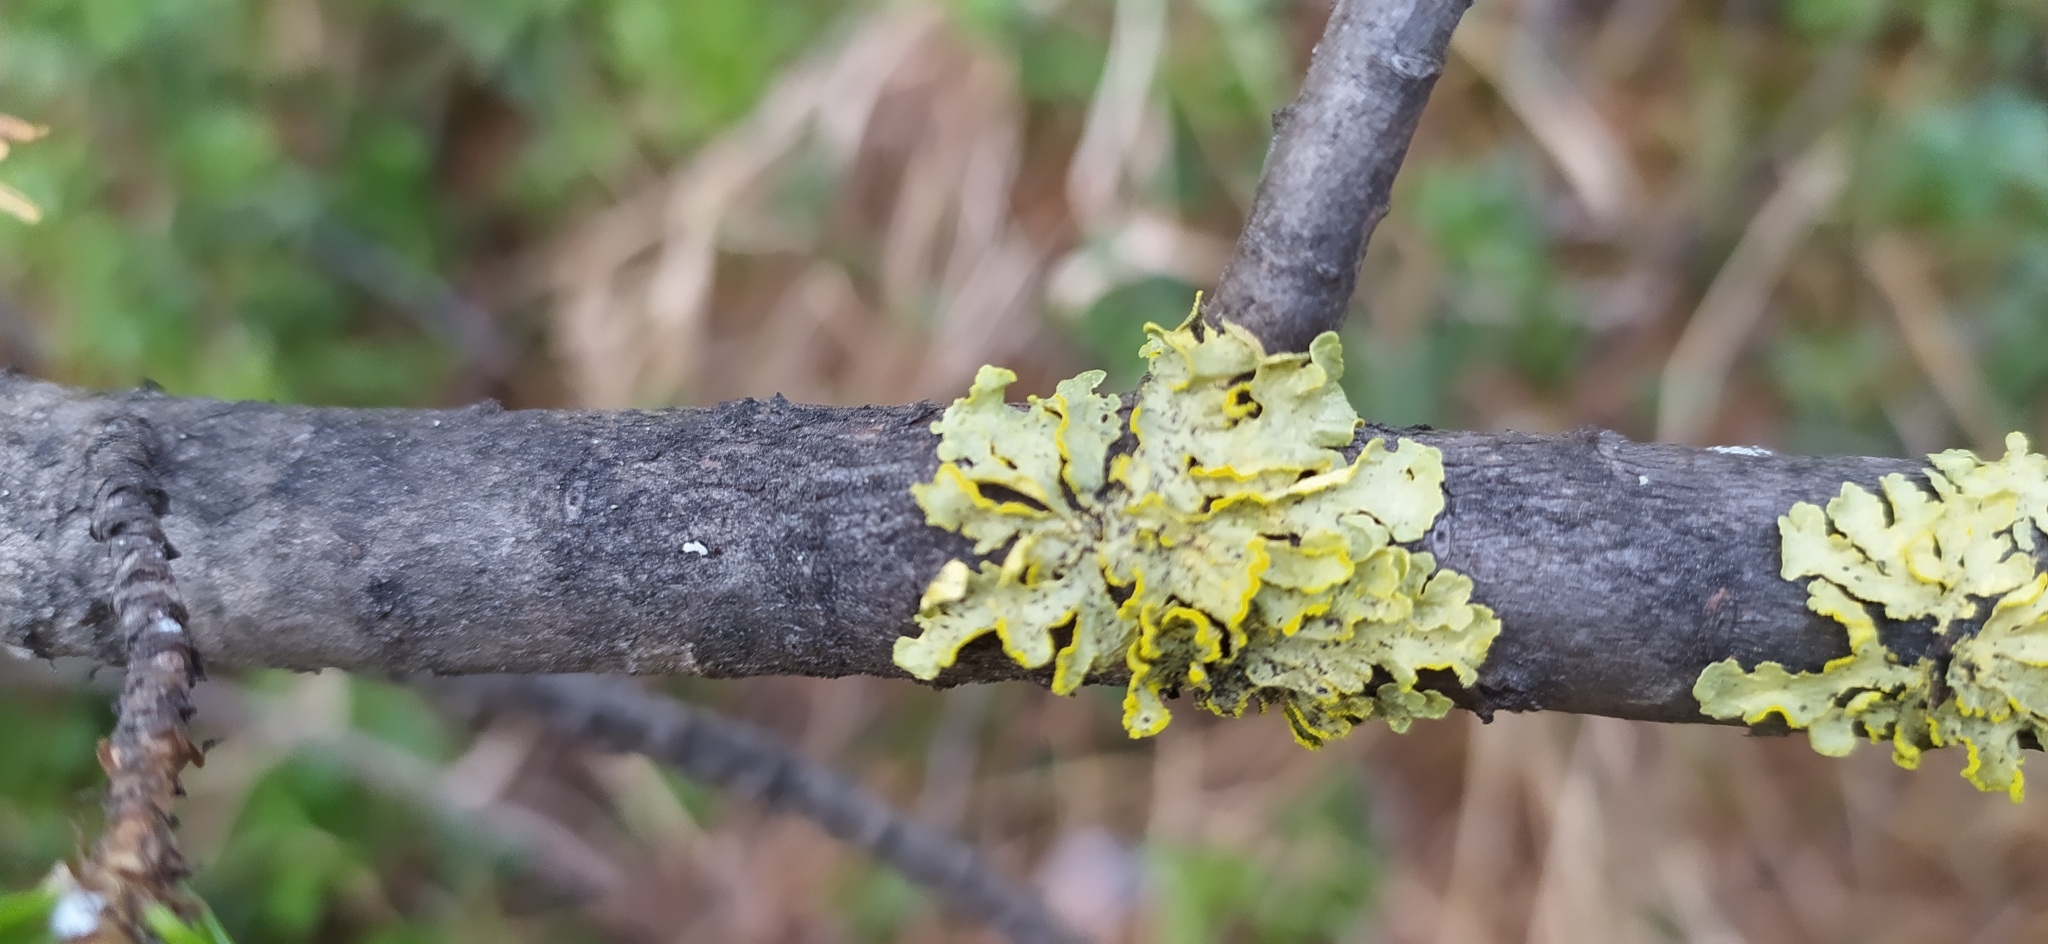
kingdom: Fungi
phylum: Ascomycota
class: Lecanoromycetes
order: Lecanorales
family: Parmeliaceae
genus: Vulpicida
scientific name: Vulpicida pinastri
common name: Powdered sunshine lichen
